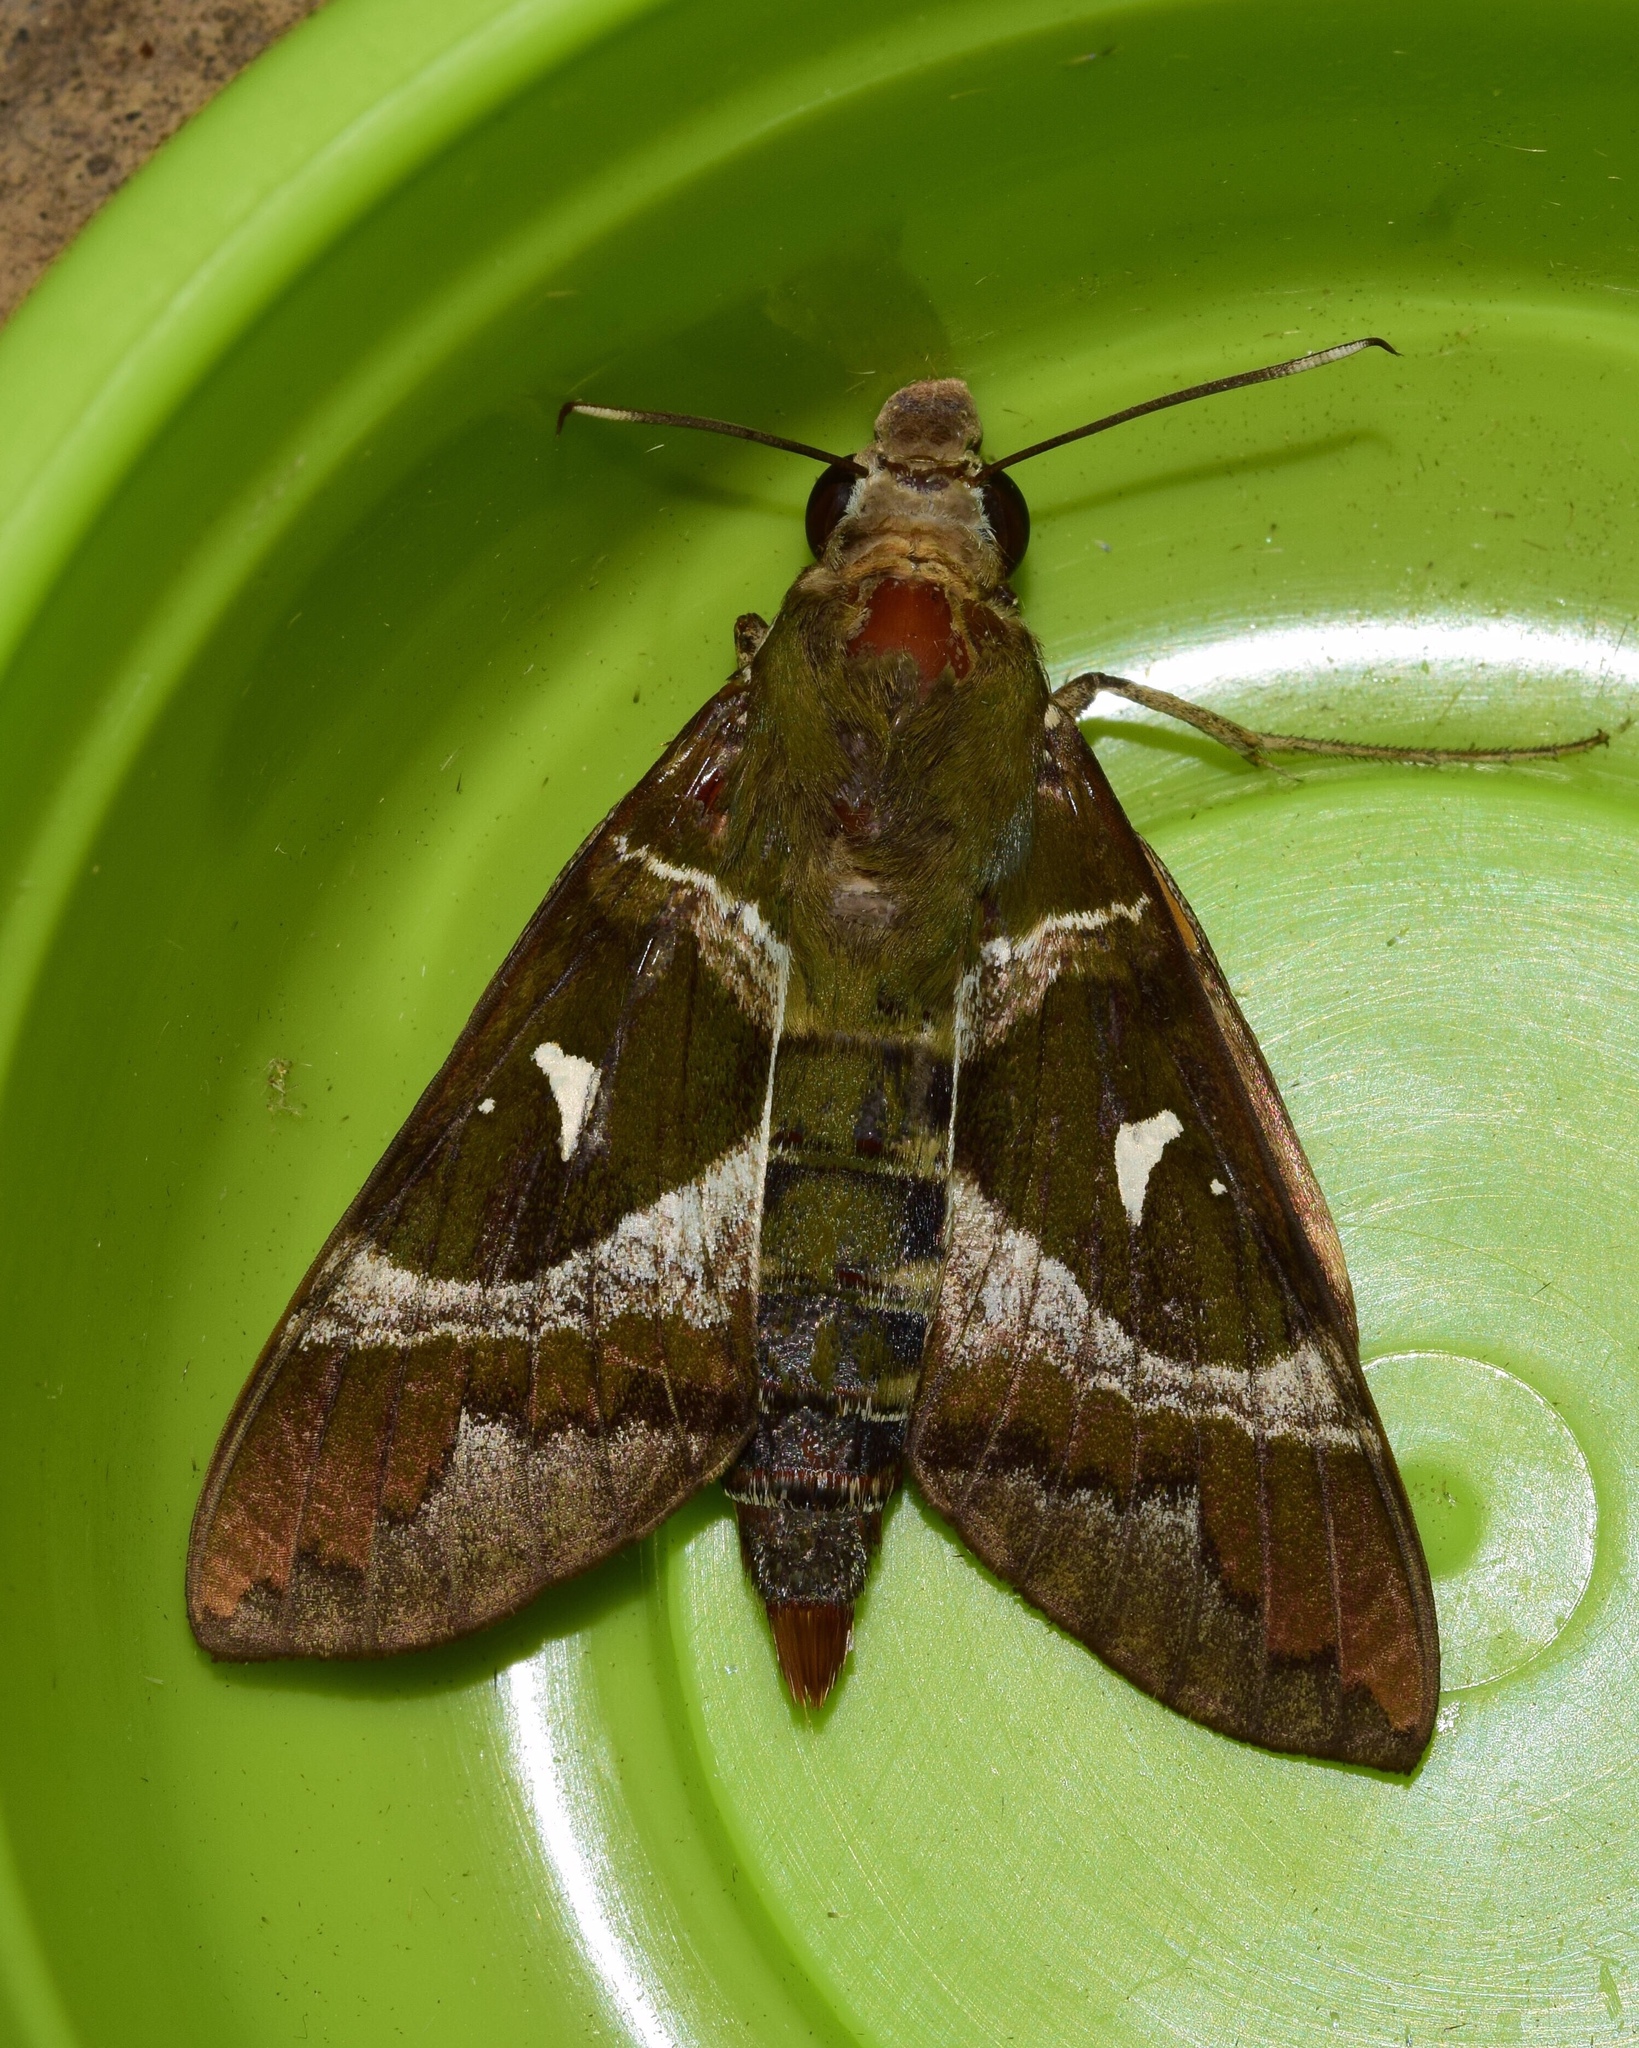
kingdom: Animalia
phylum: Arthropoda
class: Insecta
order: Lepidoptera
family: Sphingidae
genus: Nephele
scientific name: Nephele argentifera
